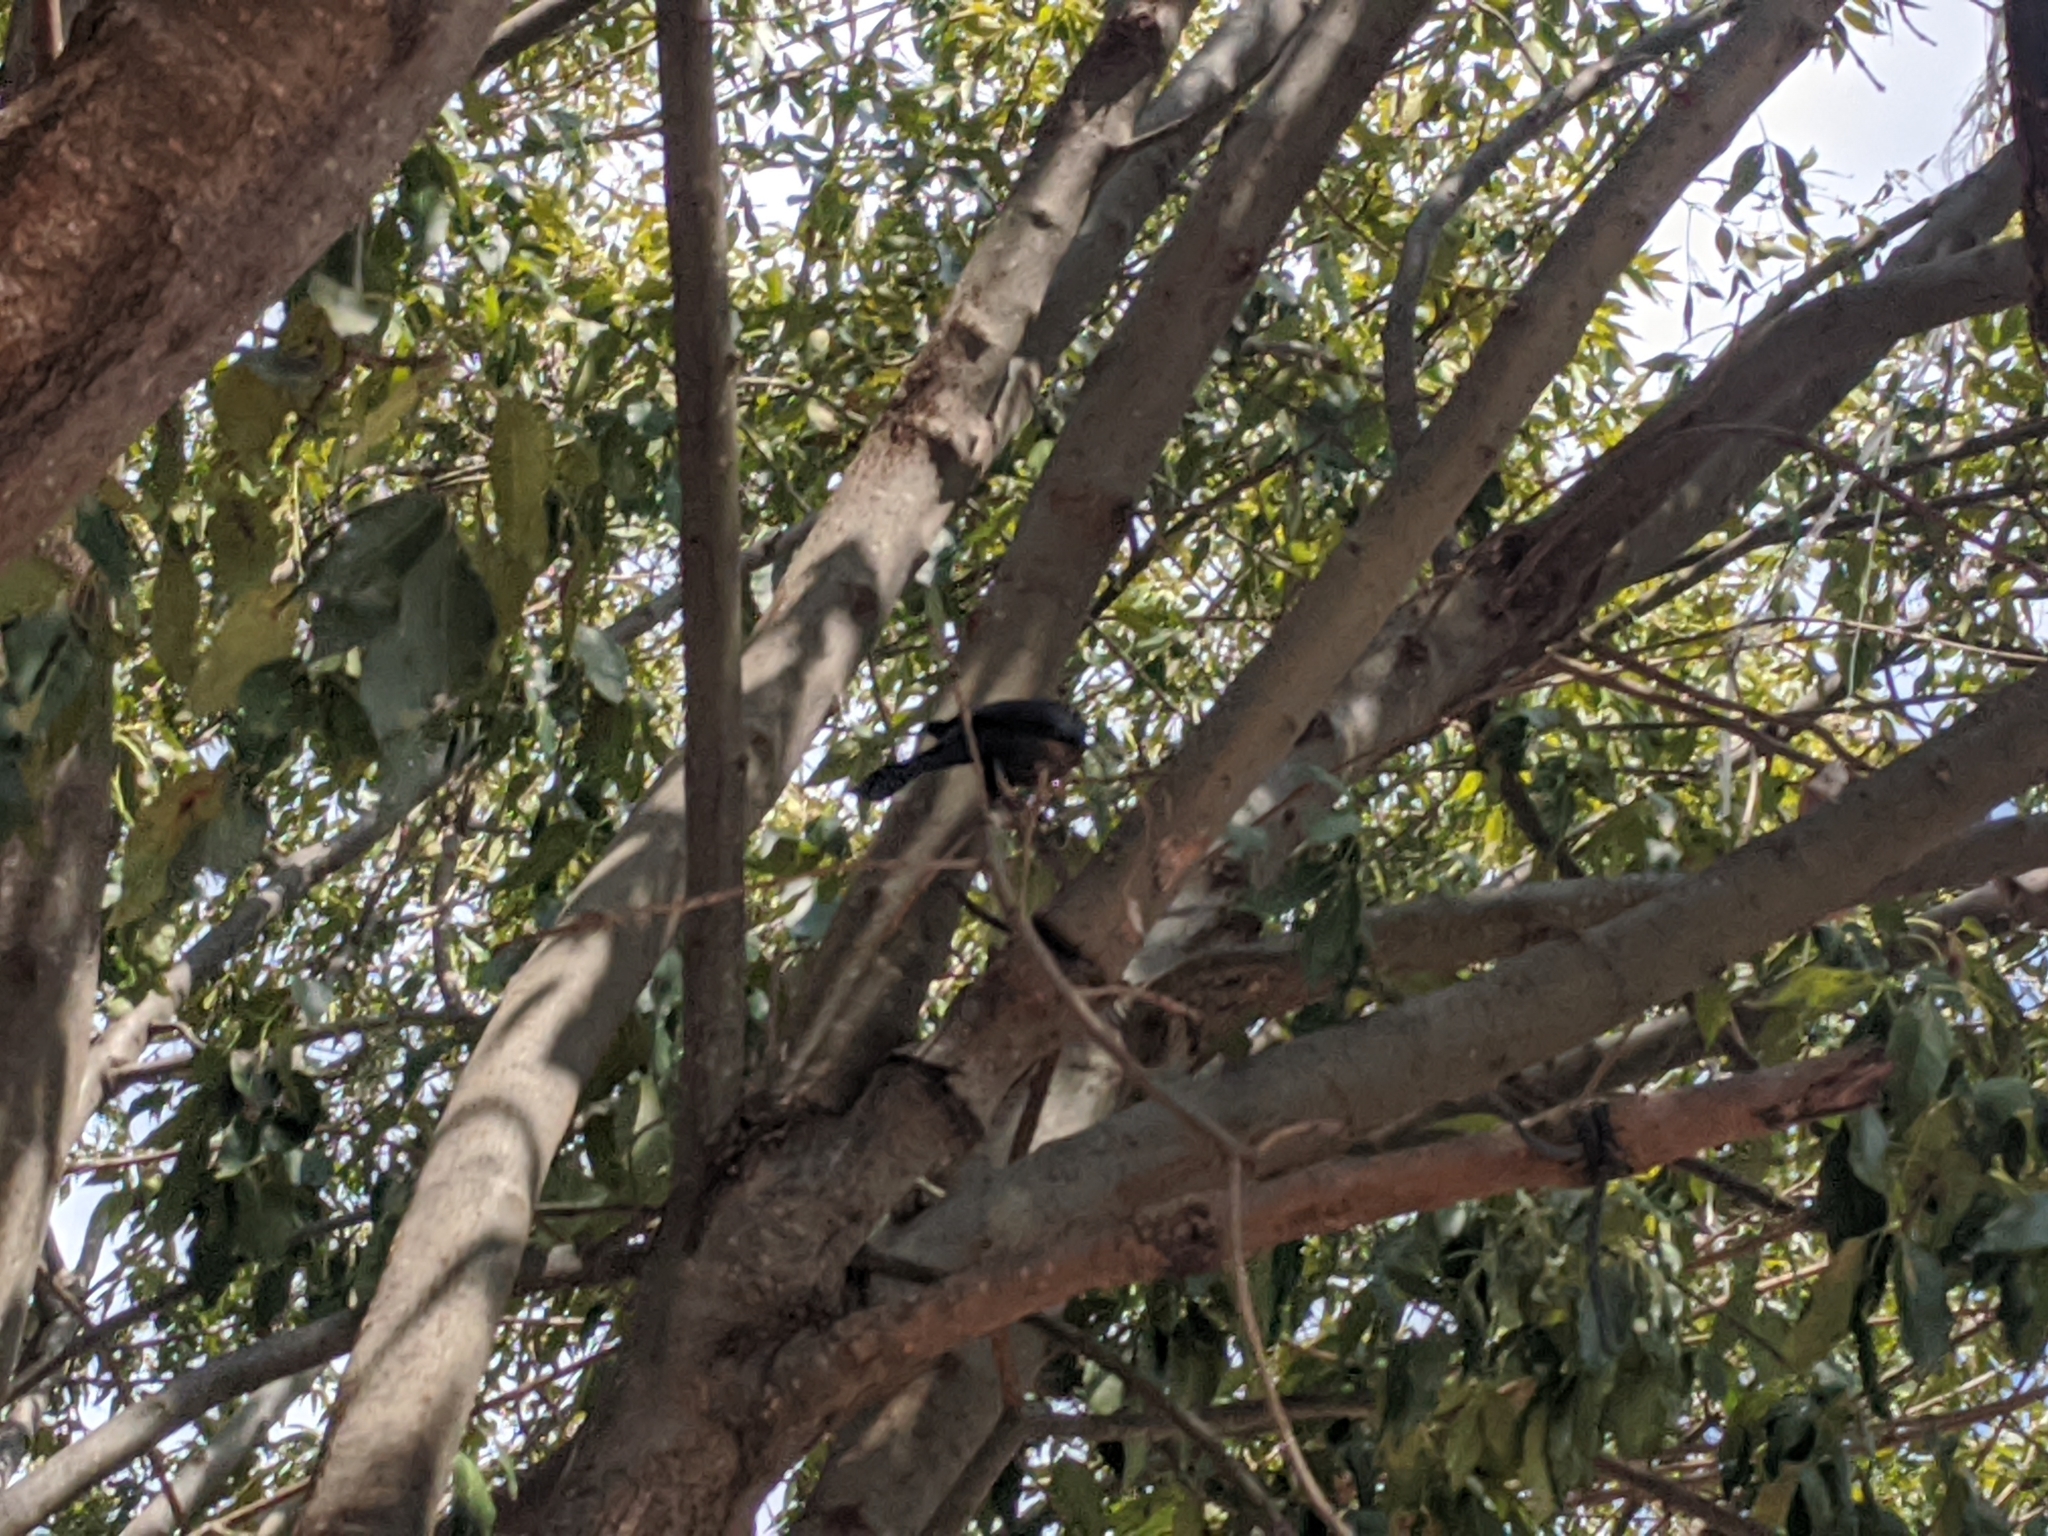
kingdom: Animalia
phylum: Chordata
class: Aves
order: Passeriformes
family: Icteridae
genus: Quiscalus
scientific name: Quiscalus mexicanus
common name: Great-tailed grackle
